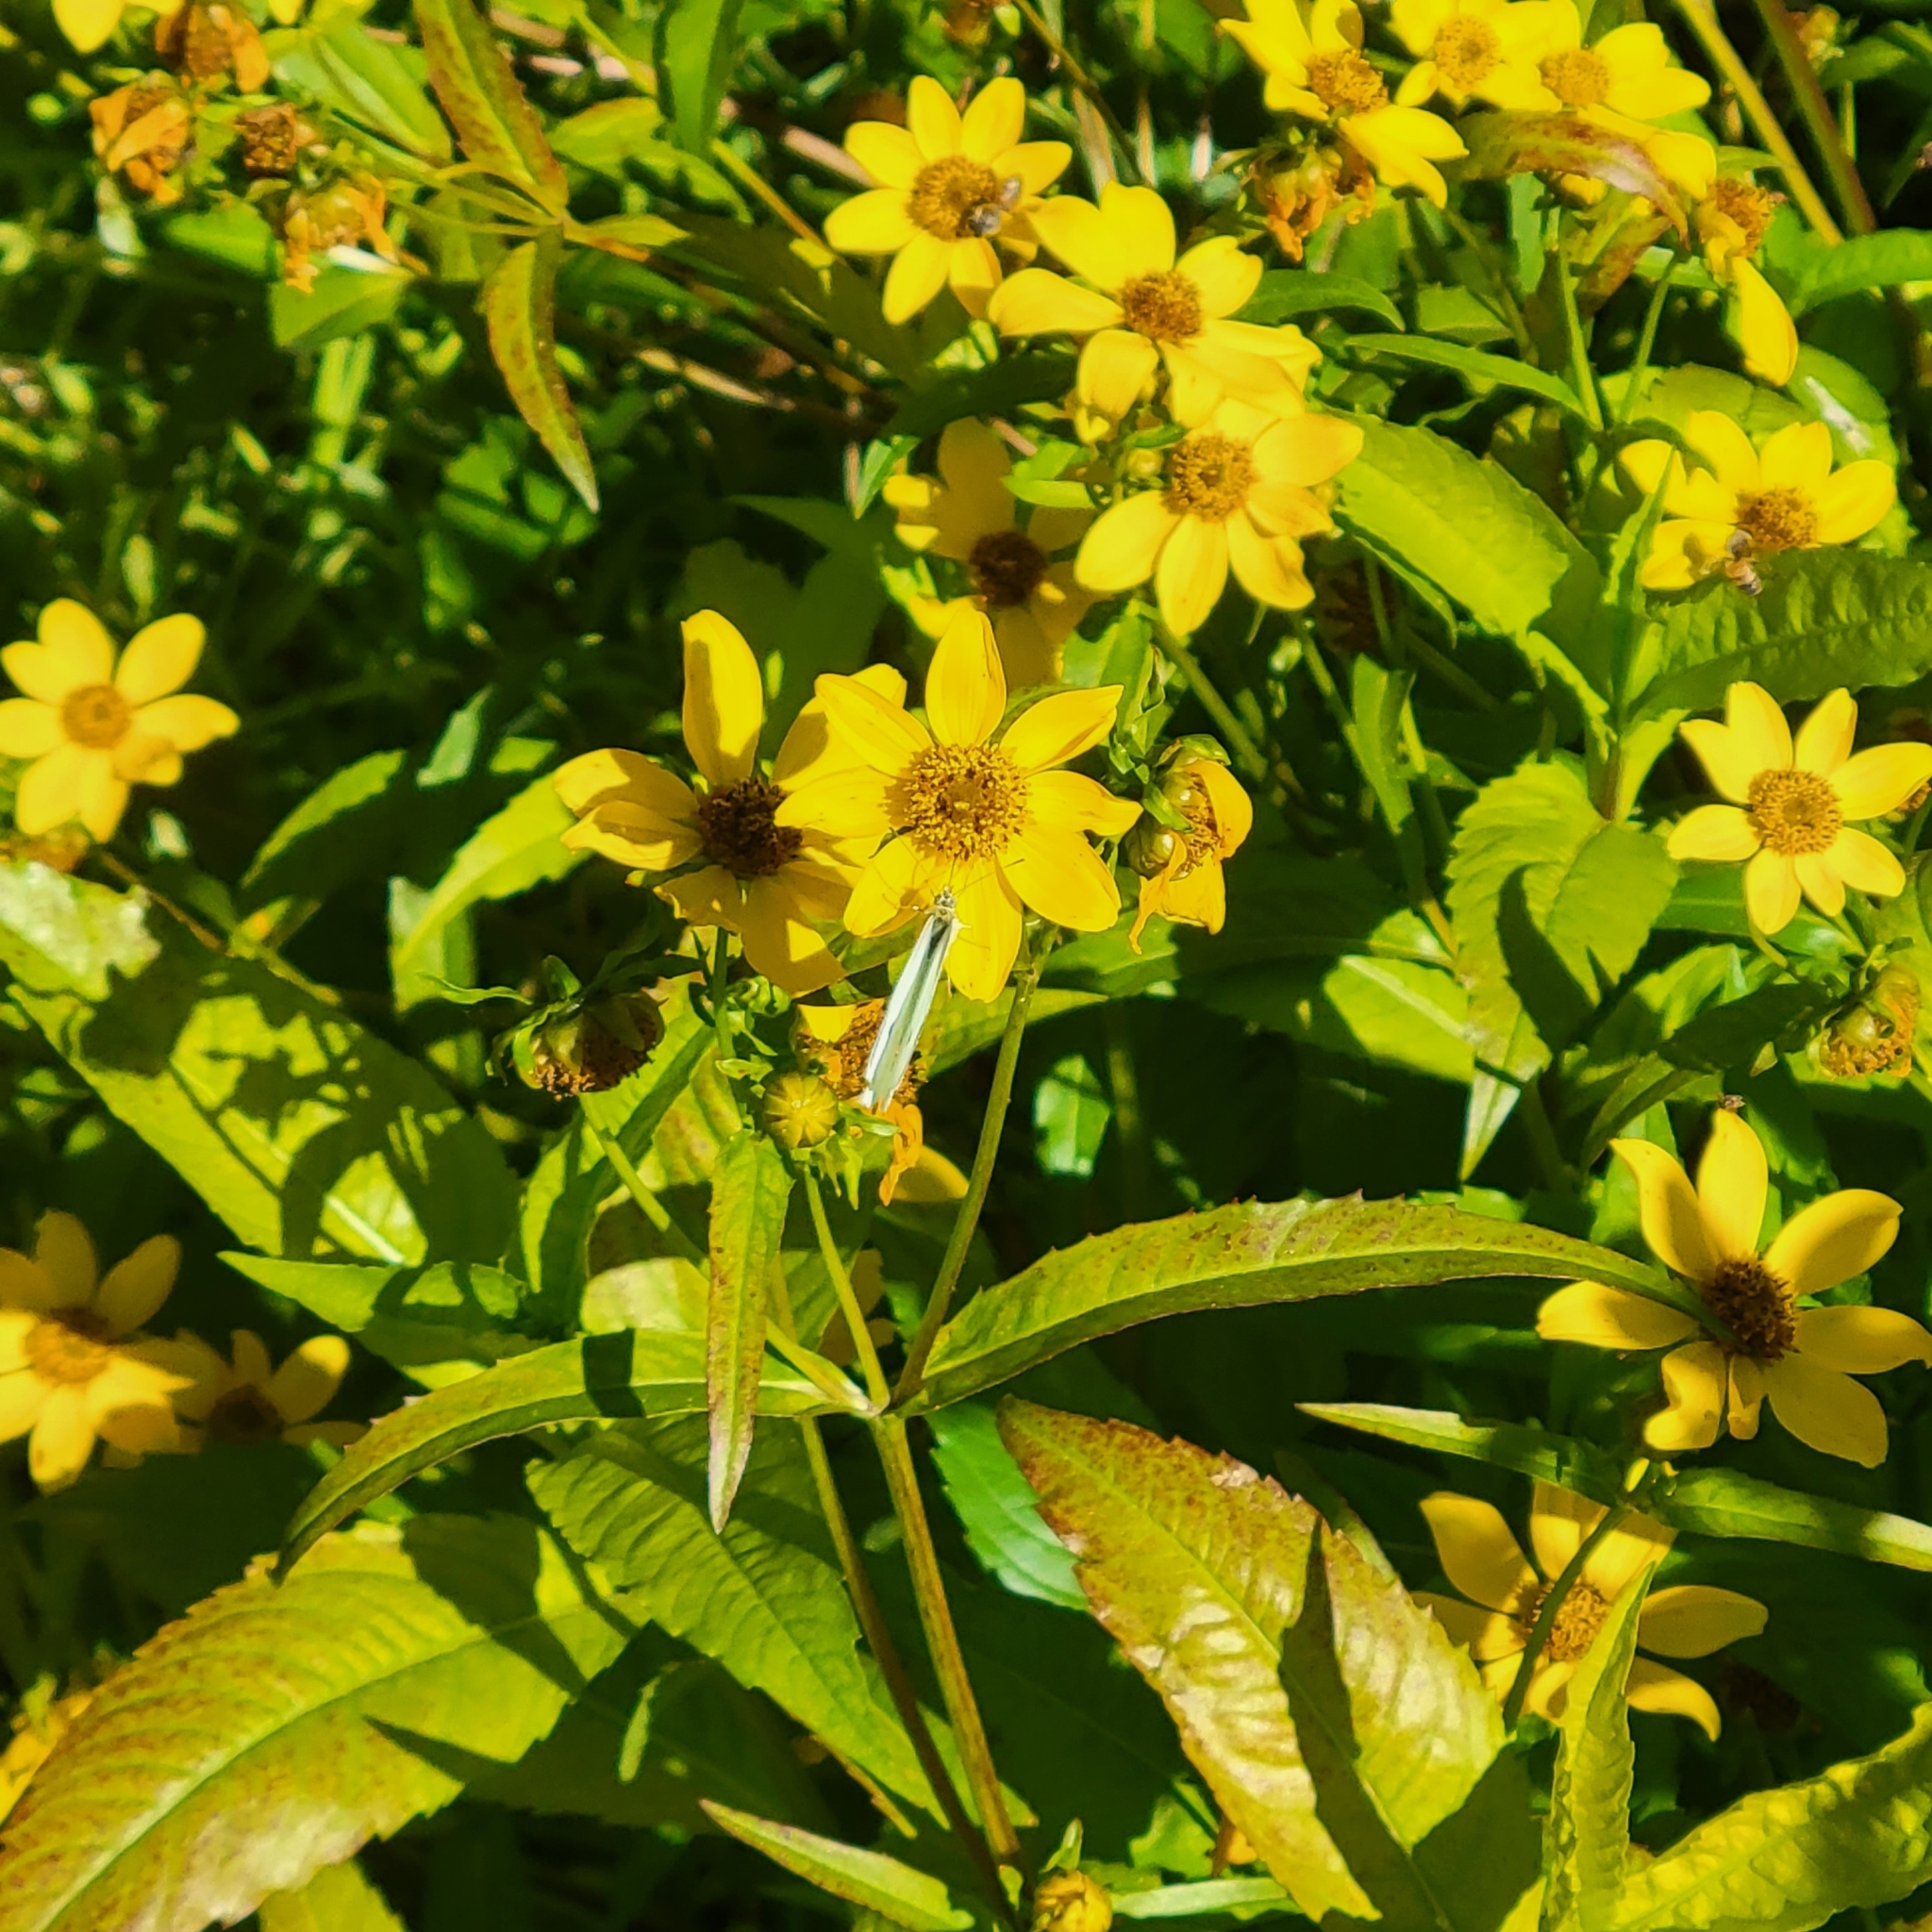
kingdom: Plantae
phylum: Tracheophyta
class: Magnoliopsida
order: Asterales
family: Asteraceae
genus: Bidens
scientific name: Bidens laevis
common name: Larger bur-marigold
